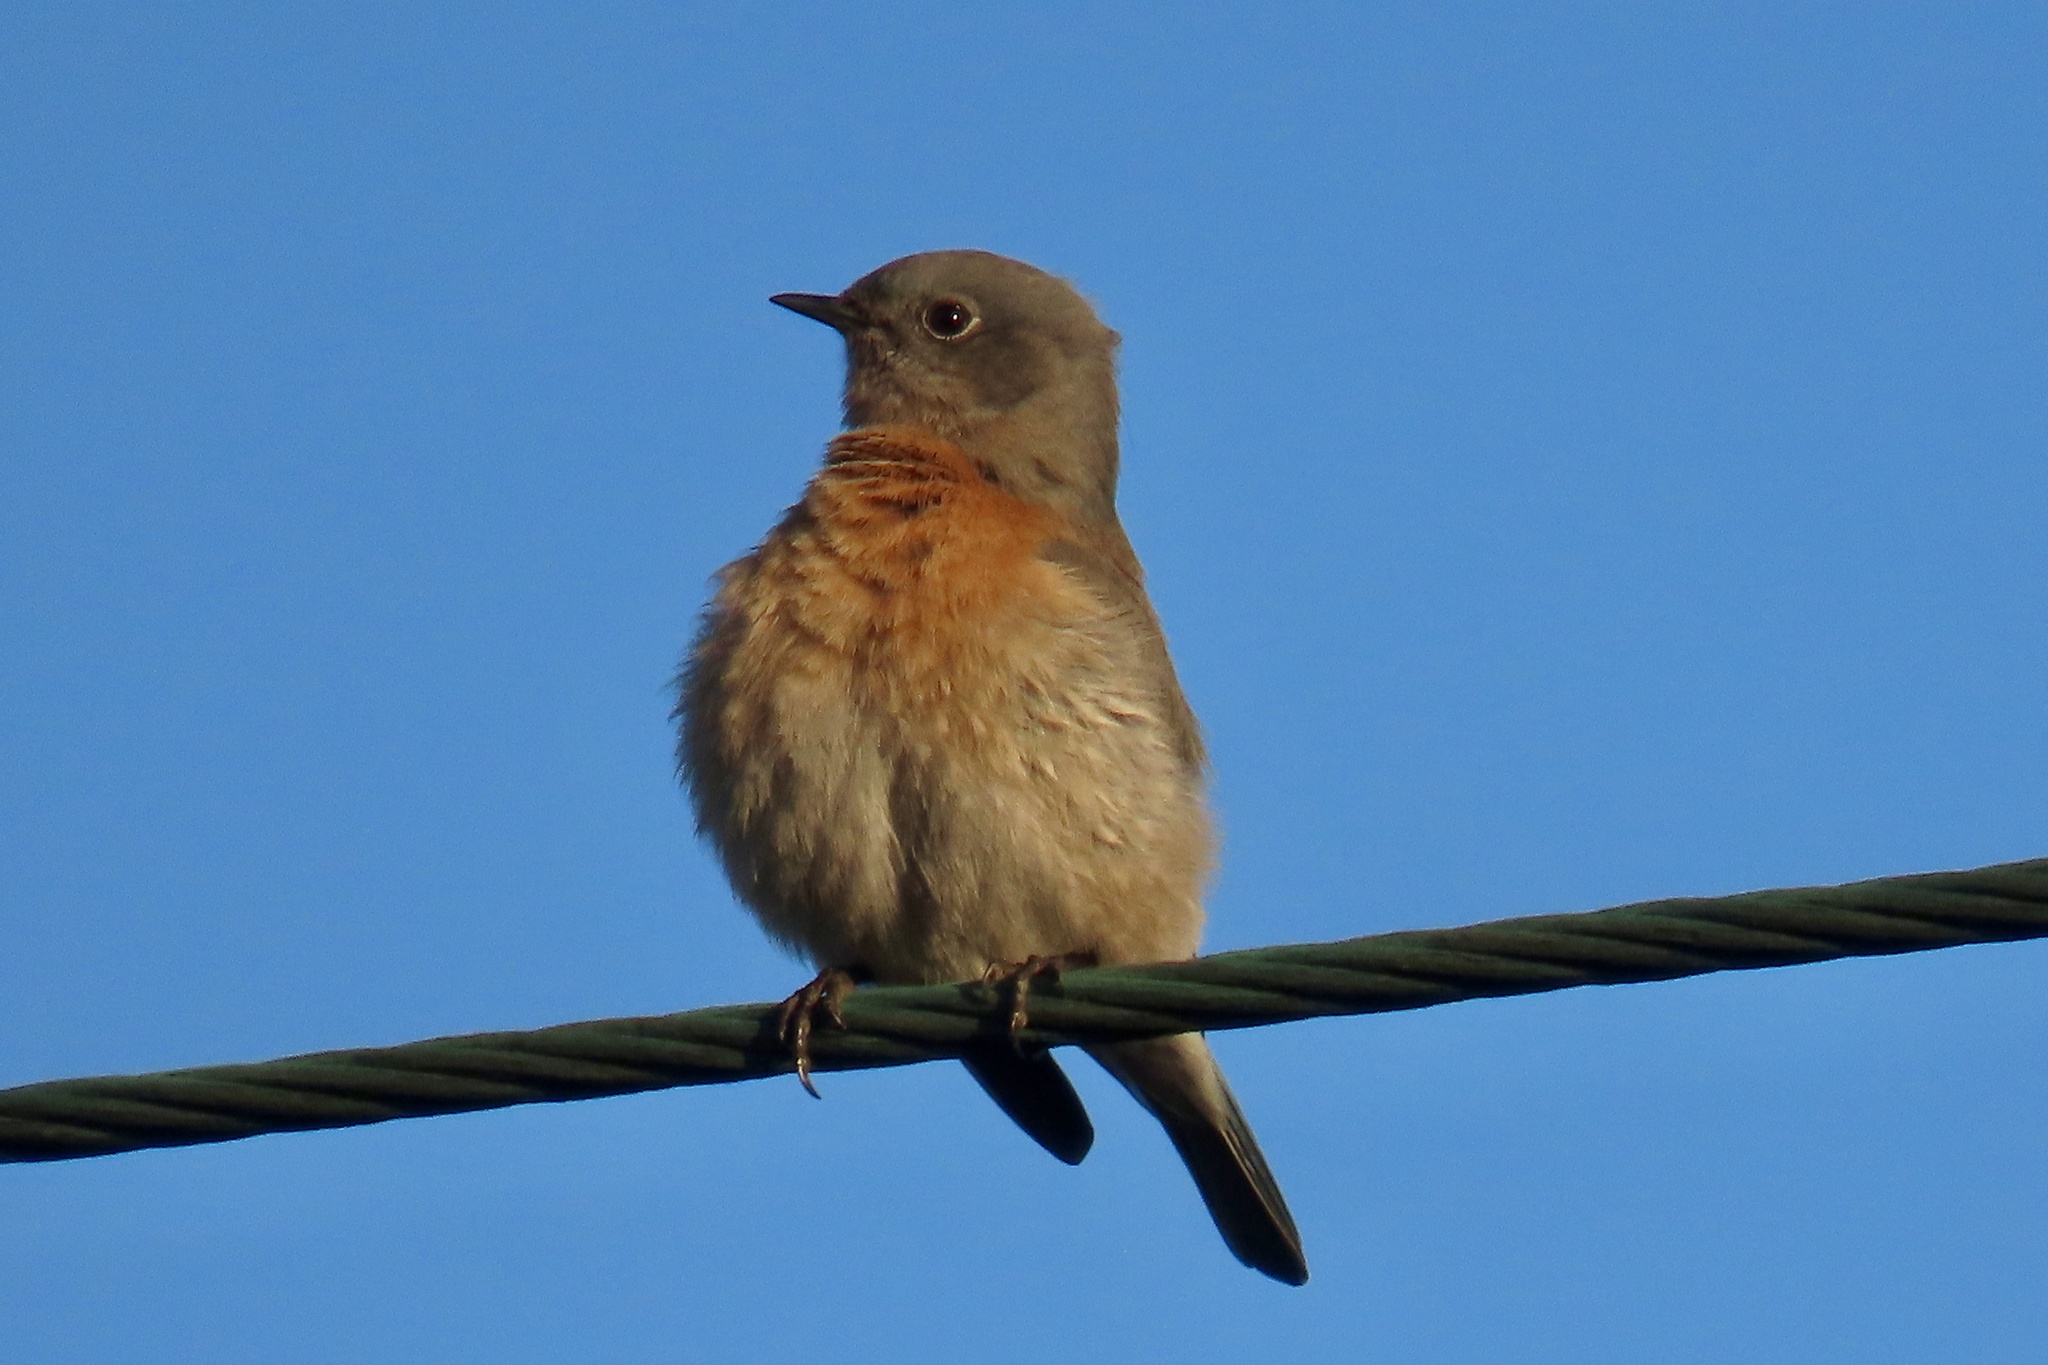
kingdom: Animalia
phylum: Chordata
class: Aves
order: Passeriformes
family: Turdidae
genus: Sialia
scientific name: Sialia mexicana
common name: Western bluebird
